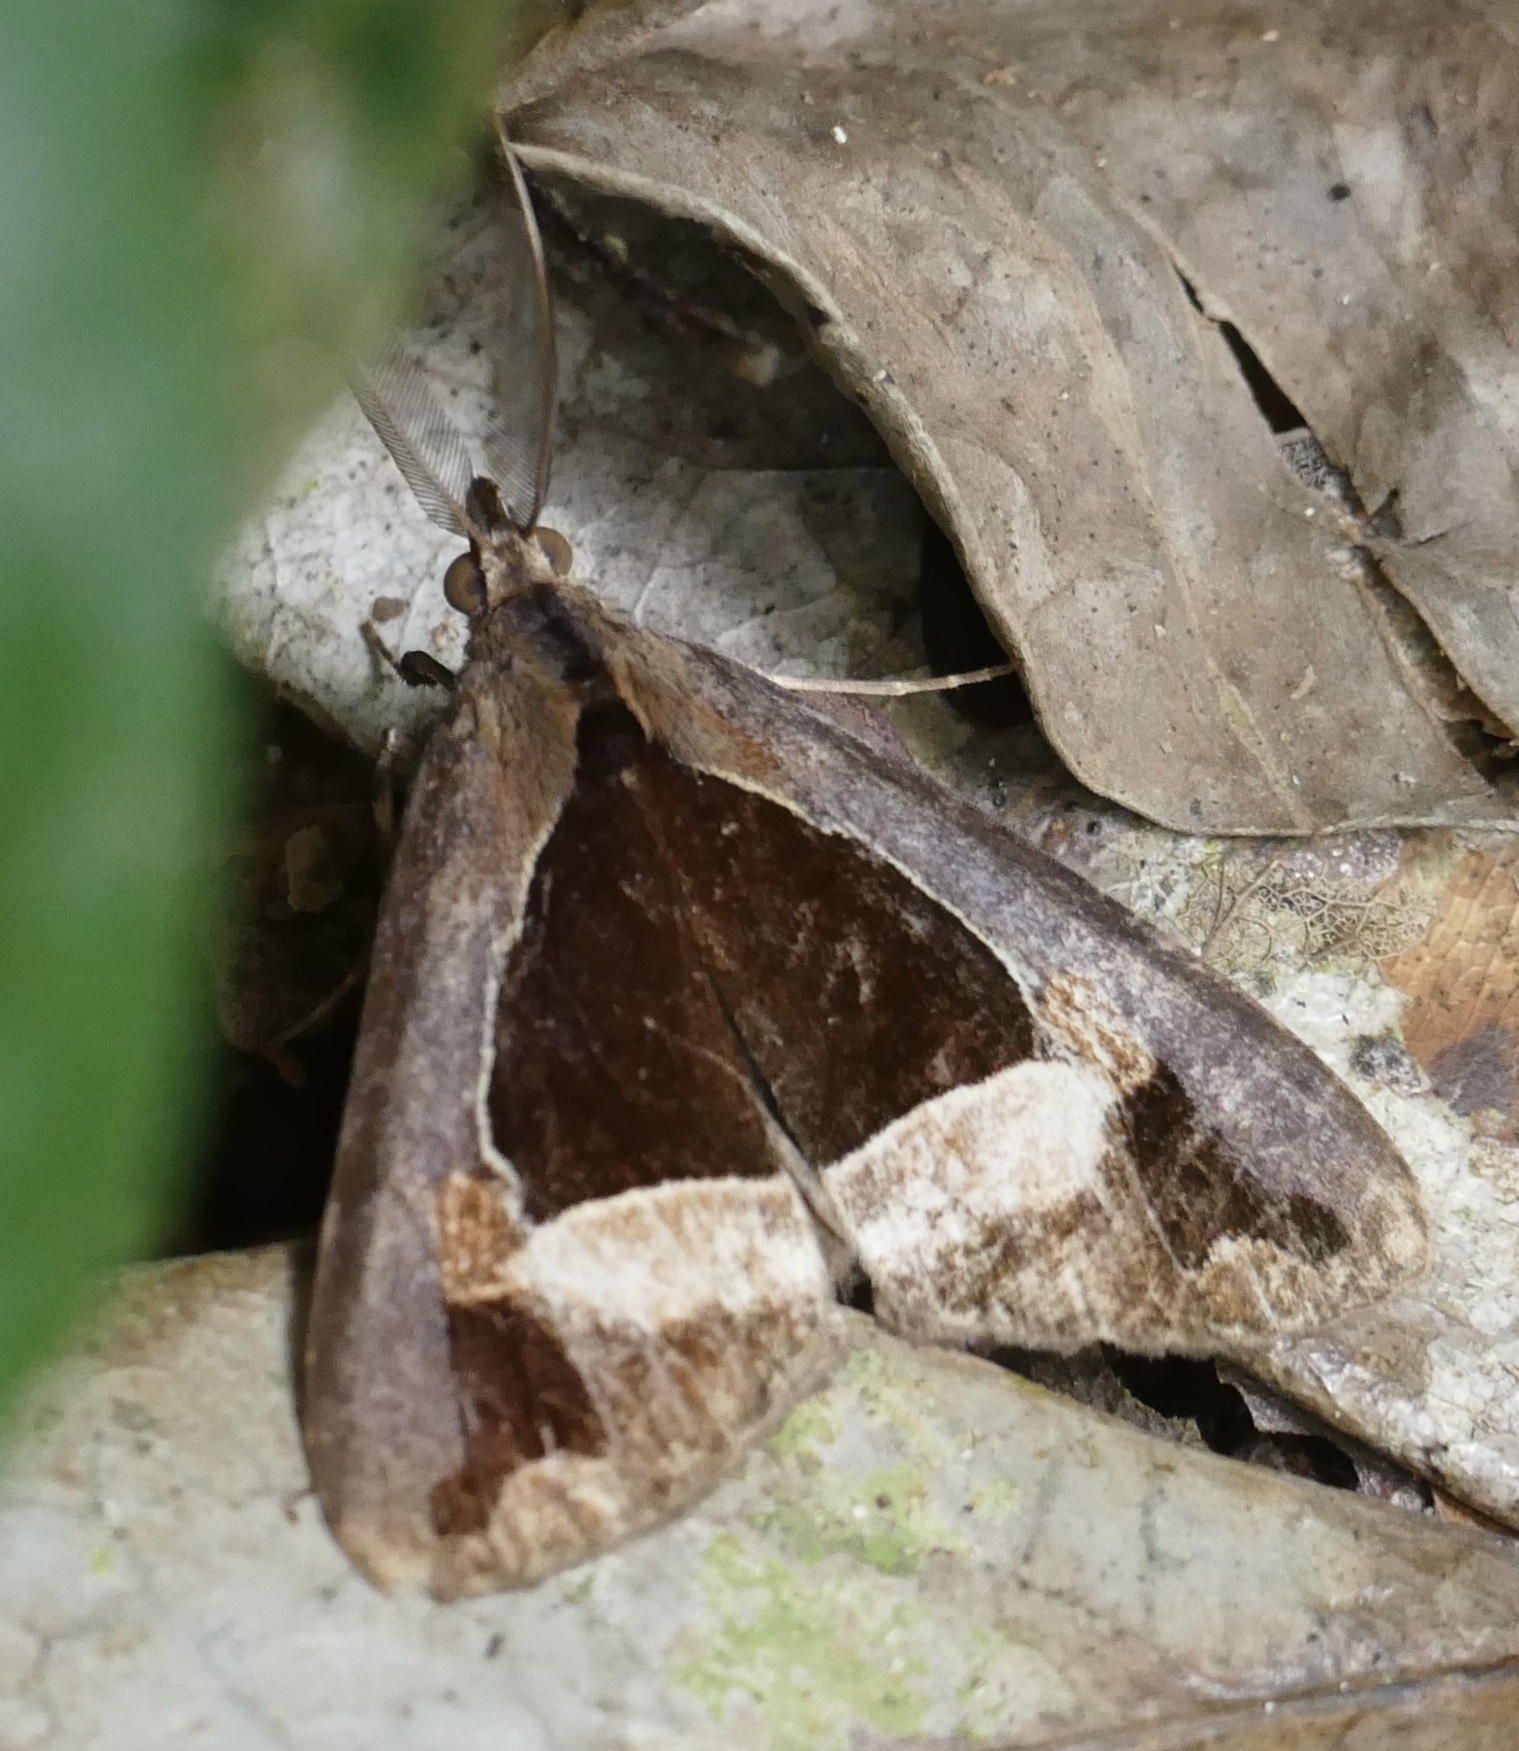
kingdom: Animalia
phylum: Arthropoda
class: Insecta
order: Lepidoptera
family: Erebidae
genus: Eudocima
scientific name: Eudocima divitiosa
